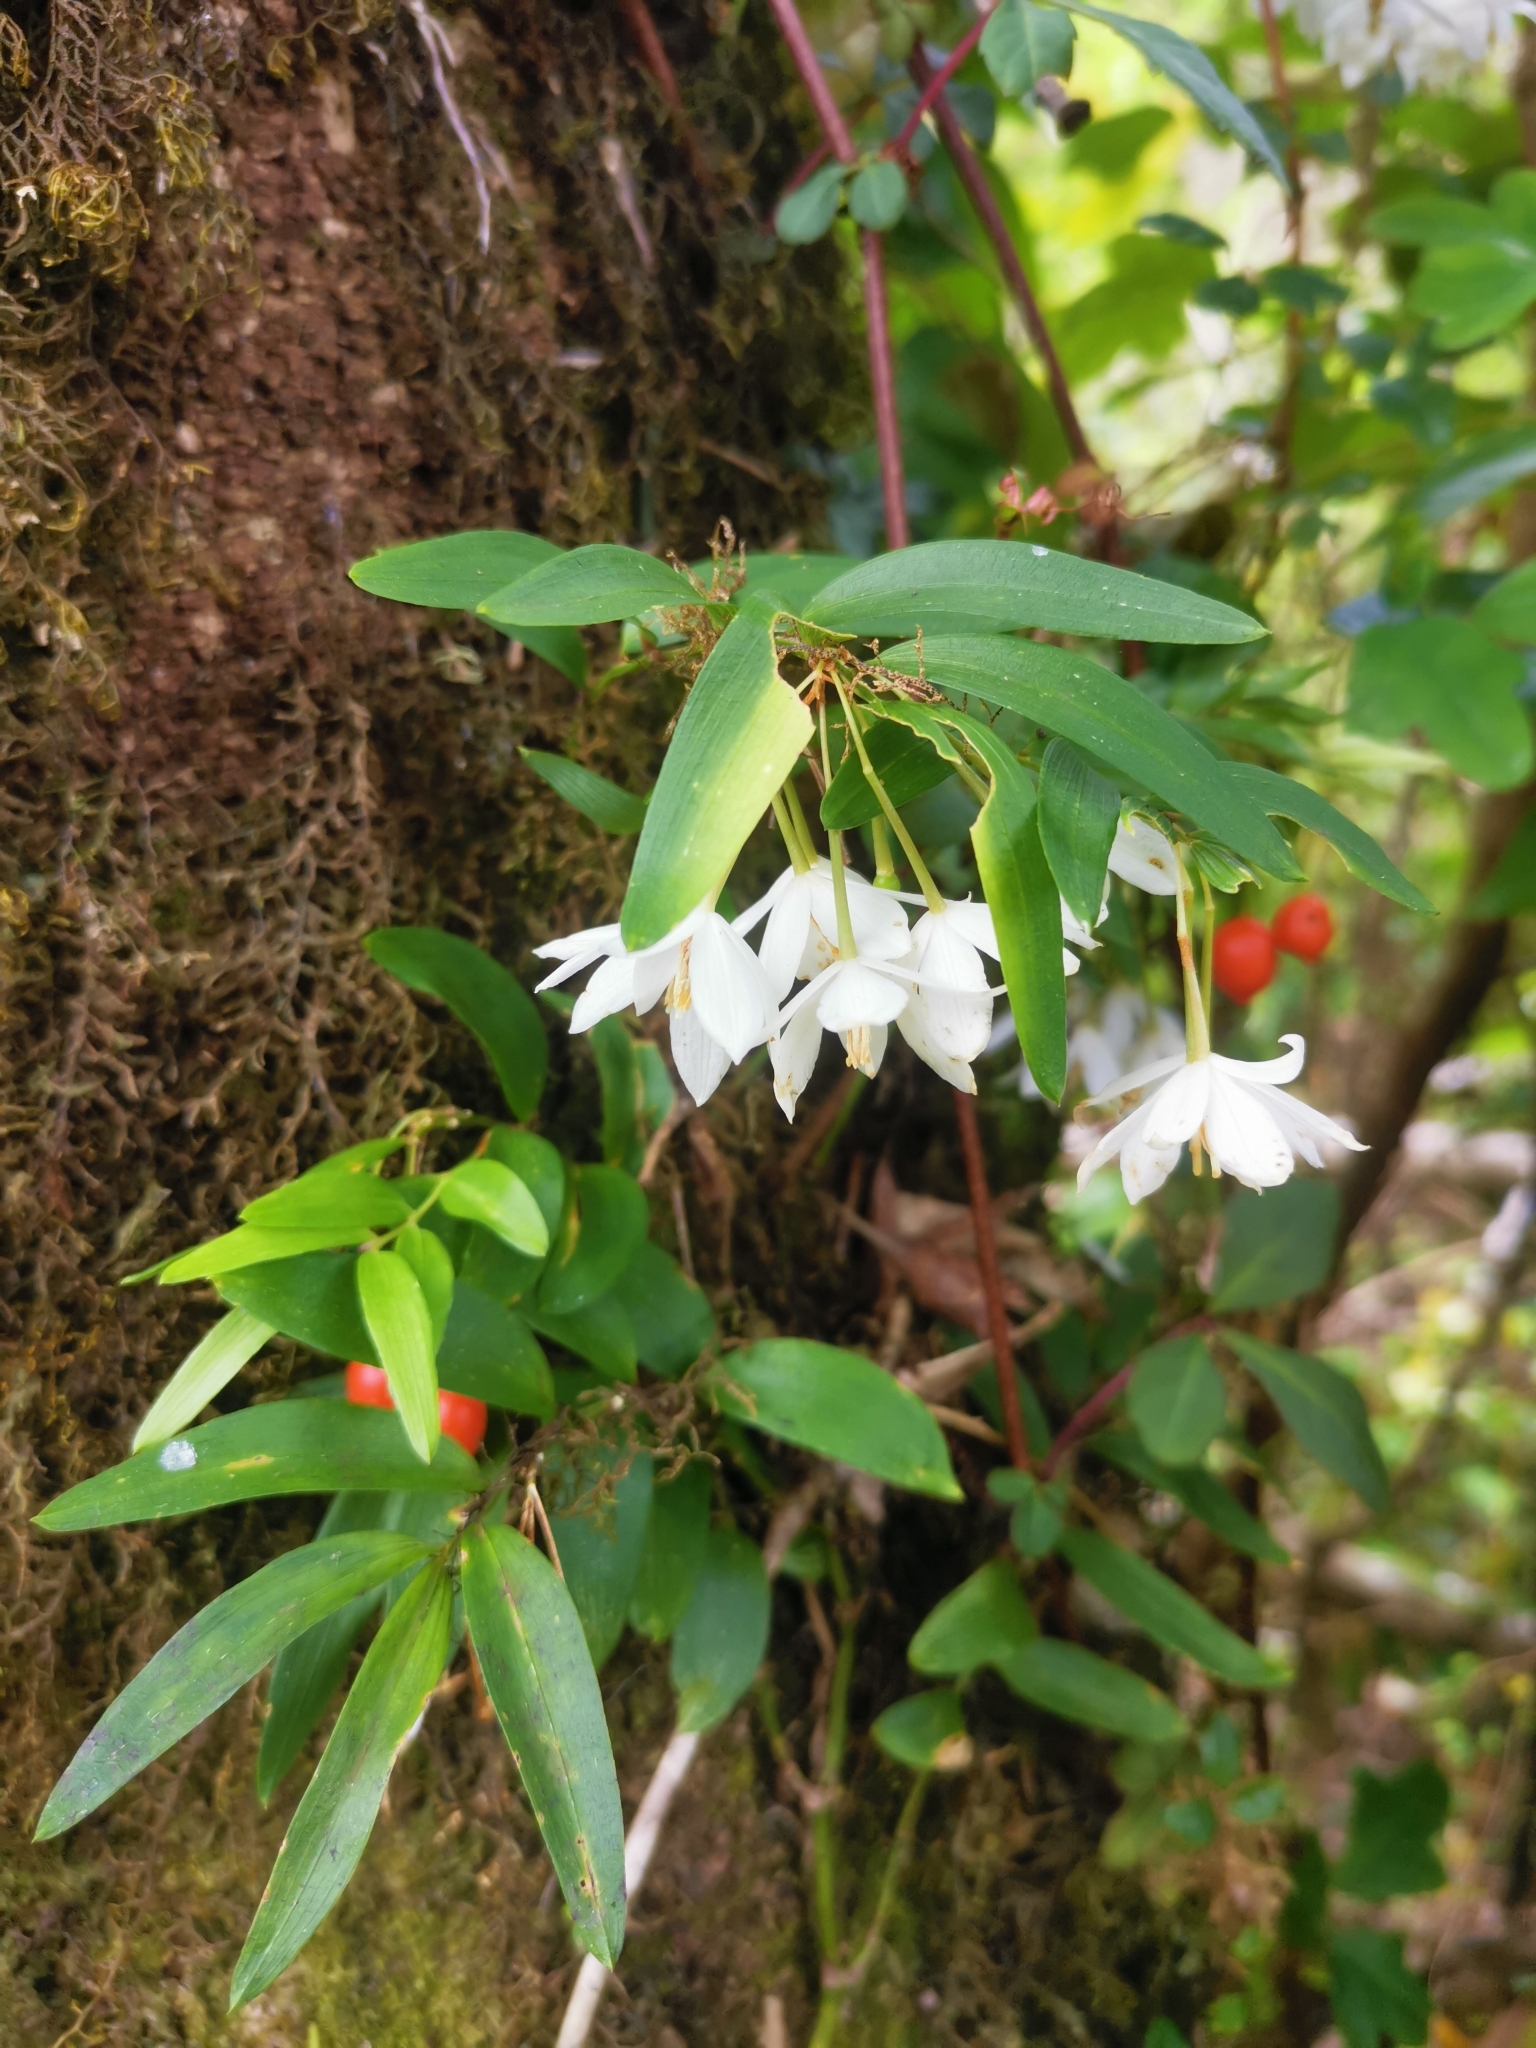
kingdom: Plantae
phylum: Tracheophyta
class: Liliopsida
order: Liliales
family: Alstroemeriaceae
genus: Luzuriaga
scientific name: Luzuriaga radicans
